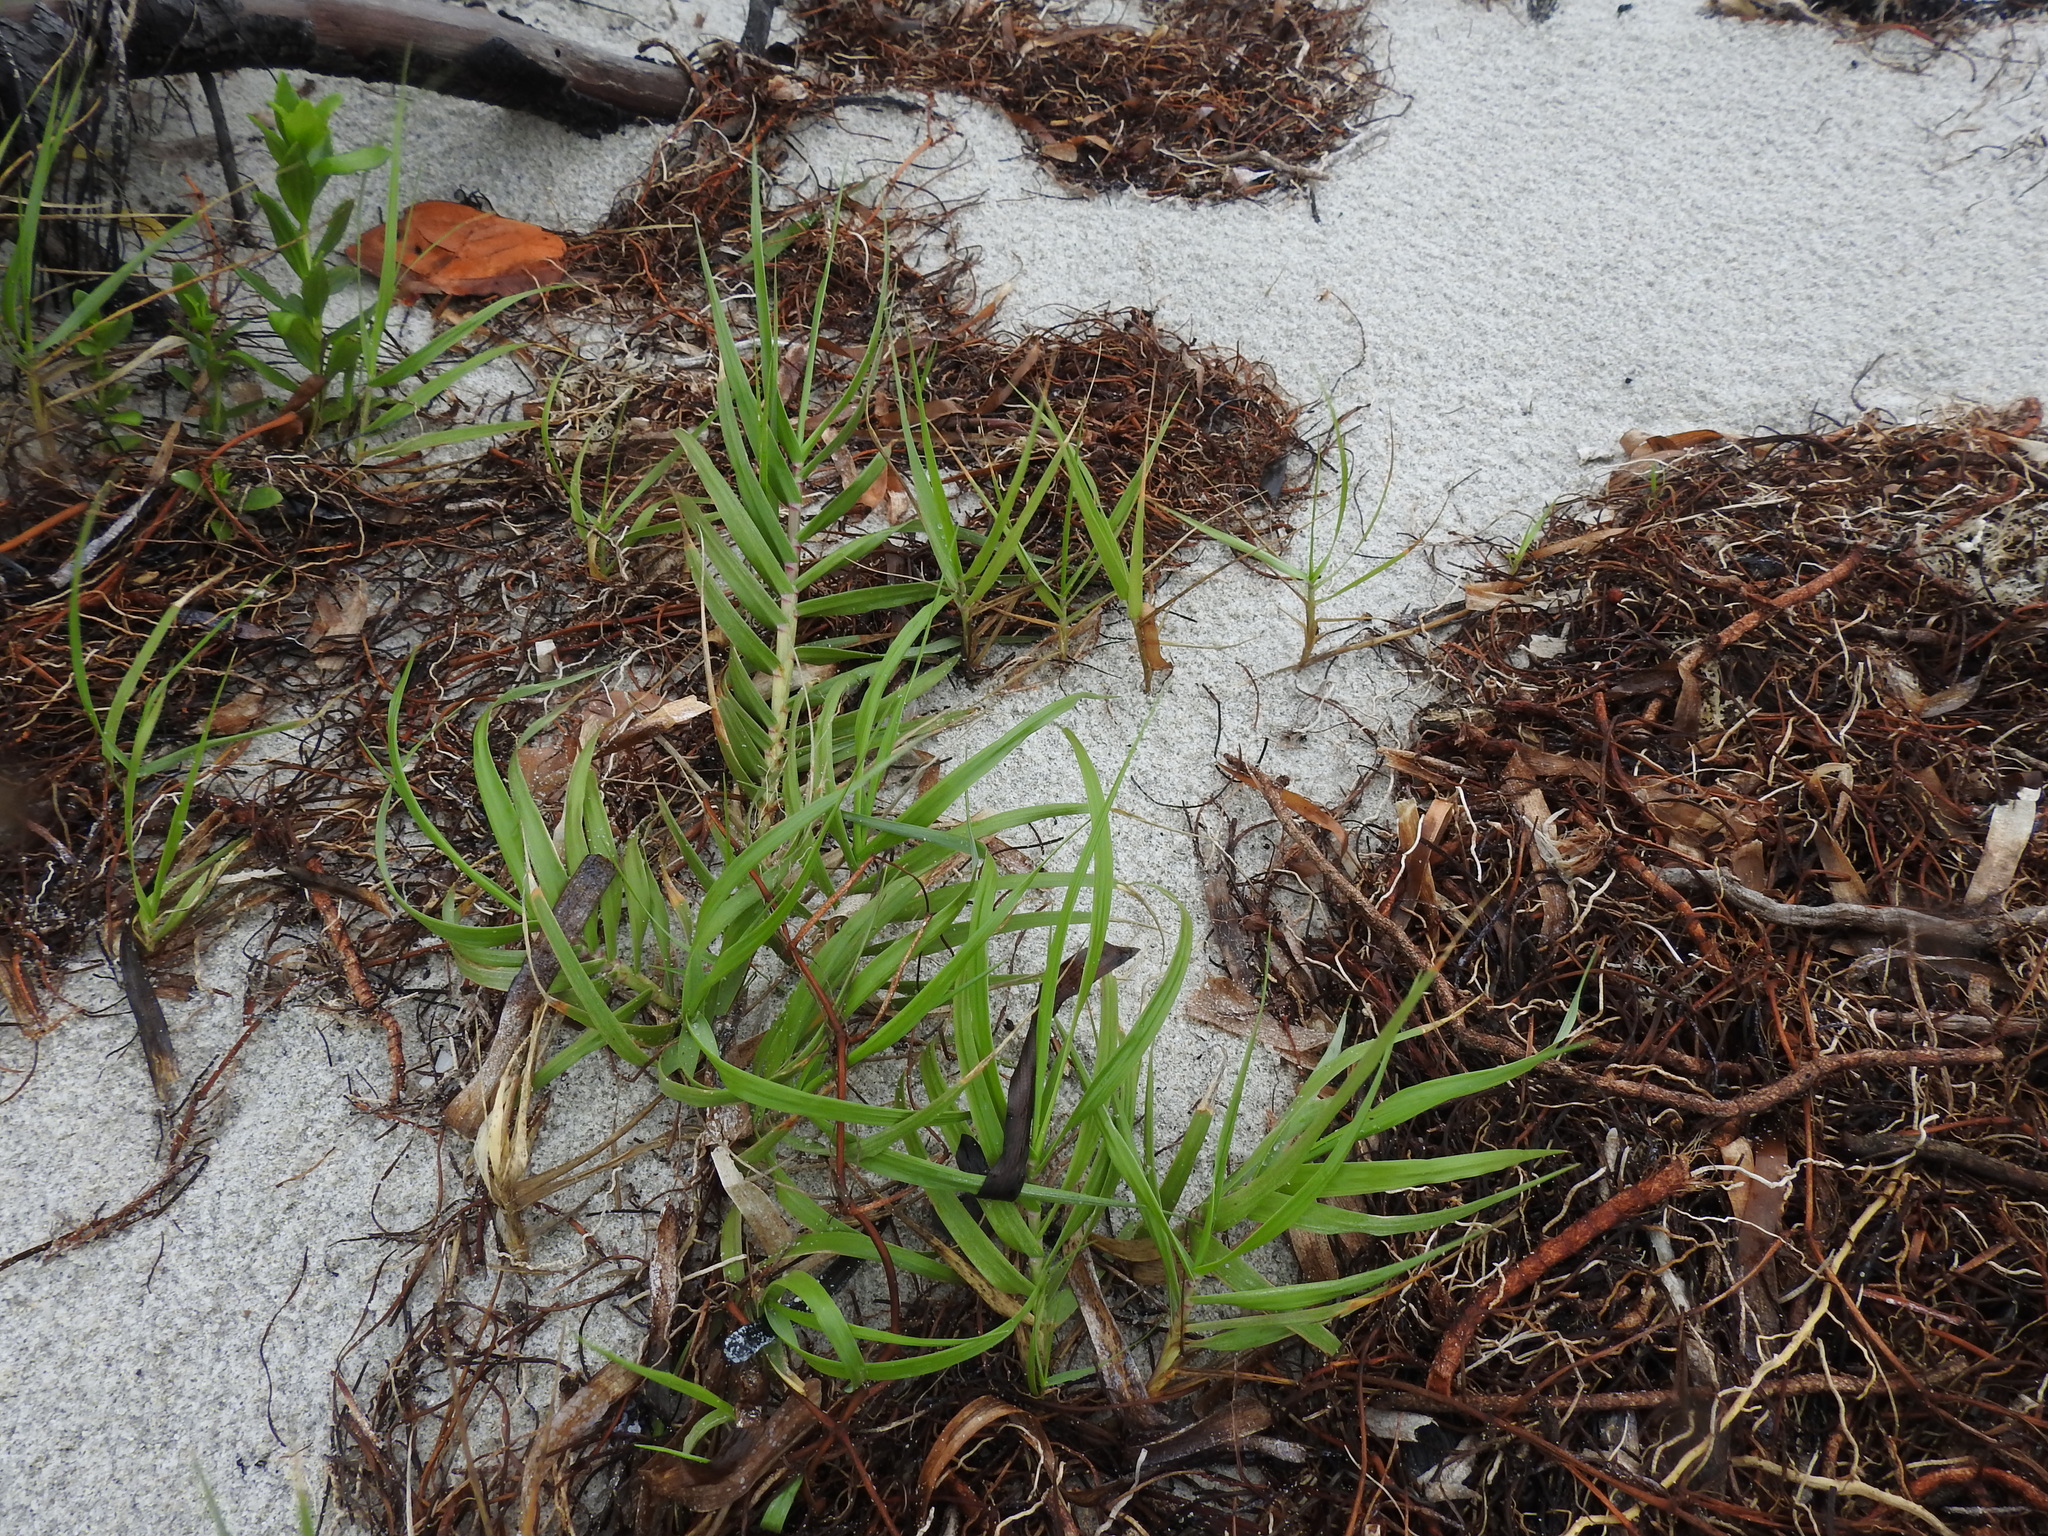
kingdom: Plantae
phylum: Tracheophyta
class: Liliopsida
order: Poales
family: Poaceae
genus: Distichlis
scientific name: Distichlis spicata
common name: Saltgrass
